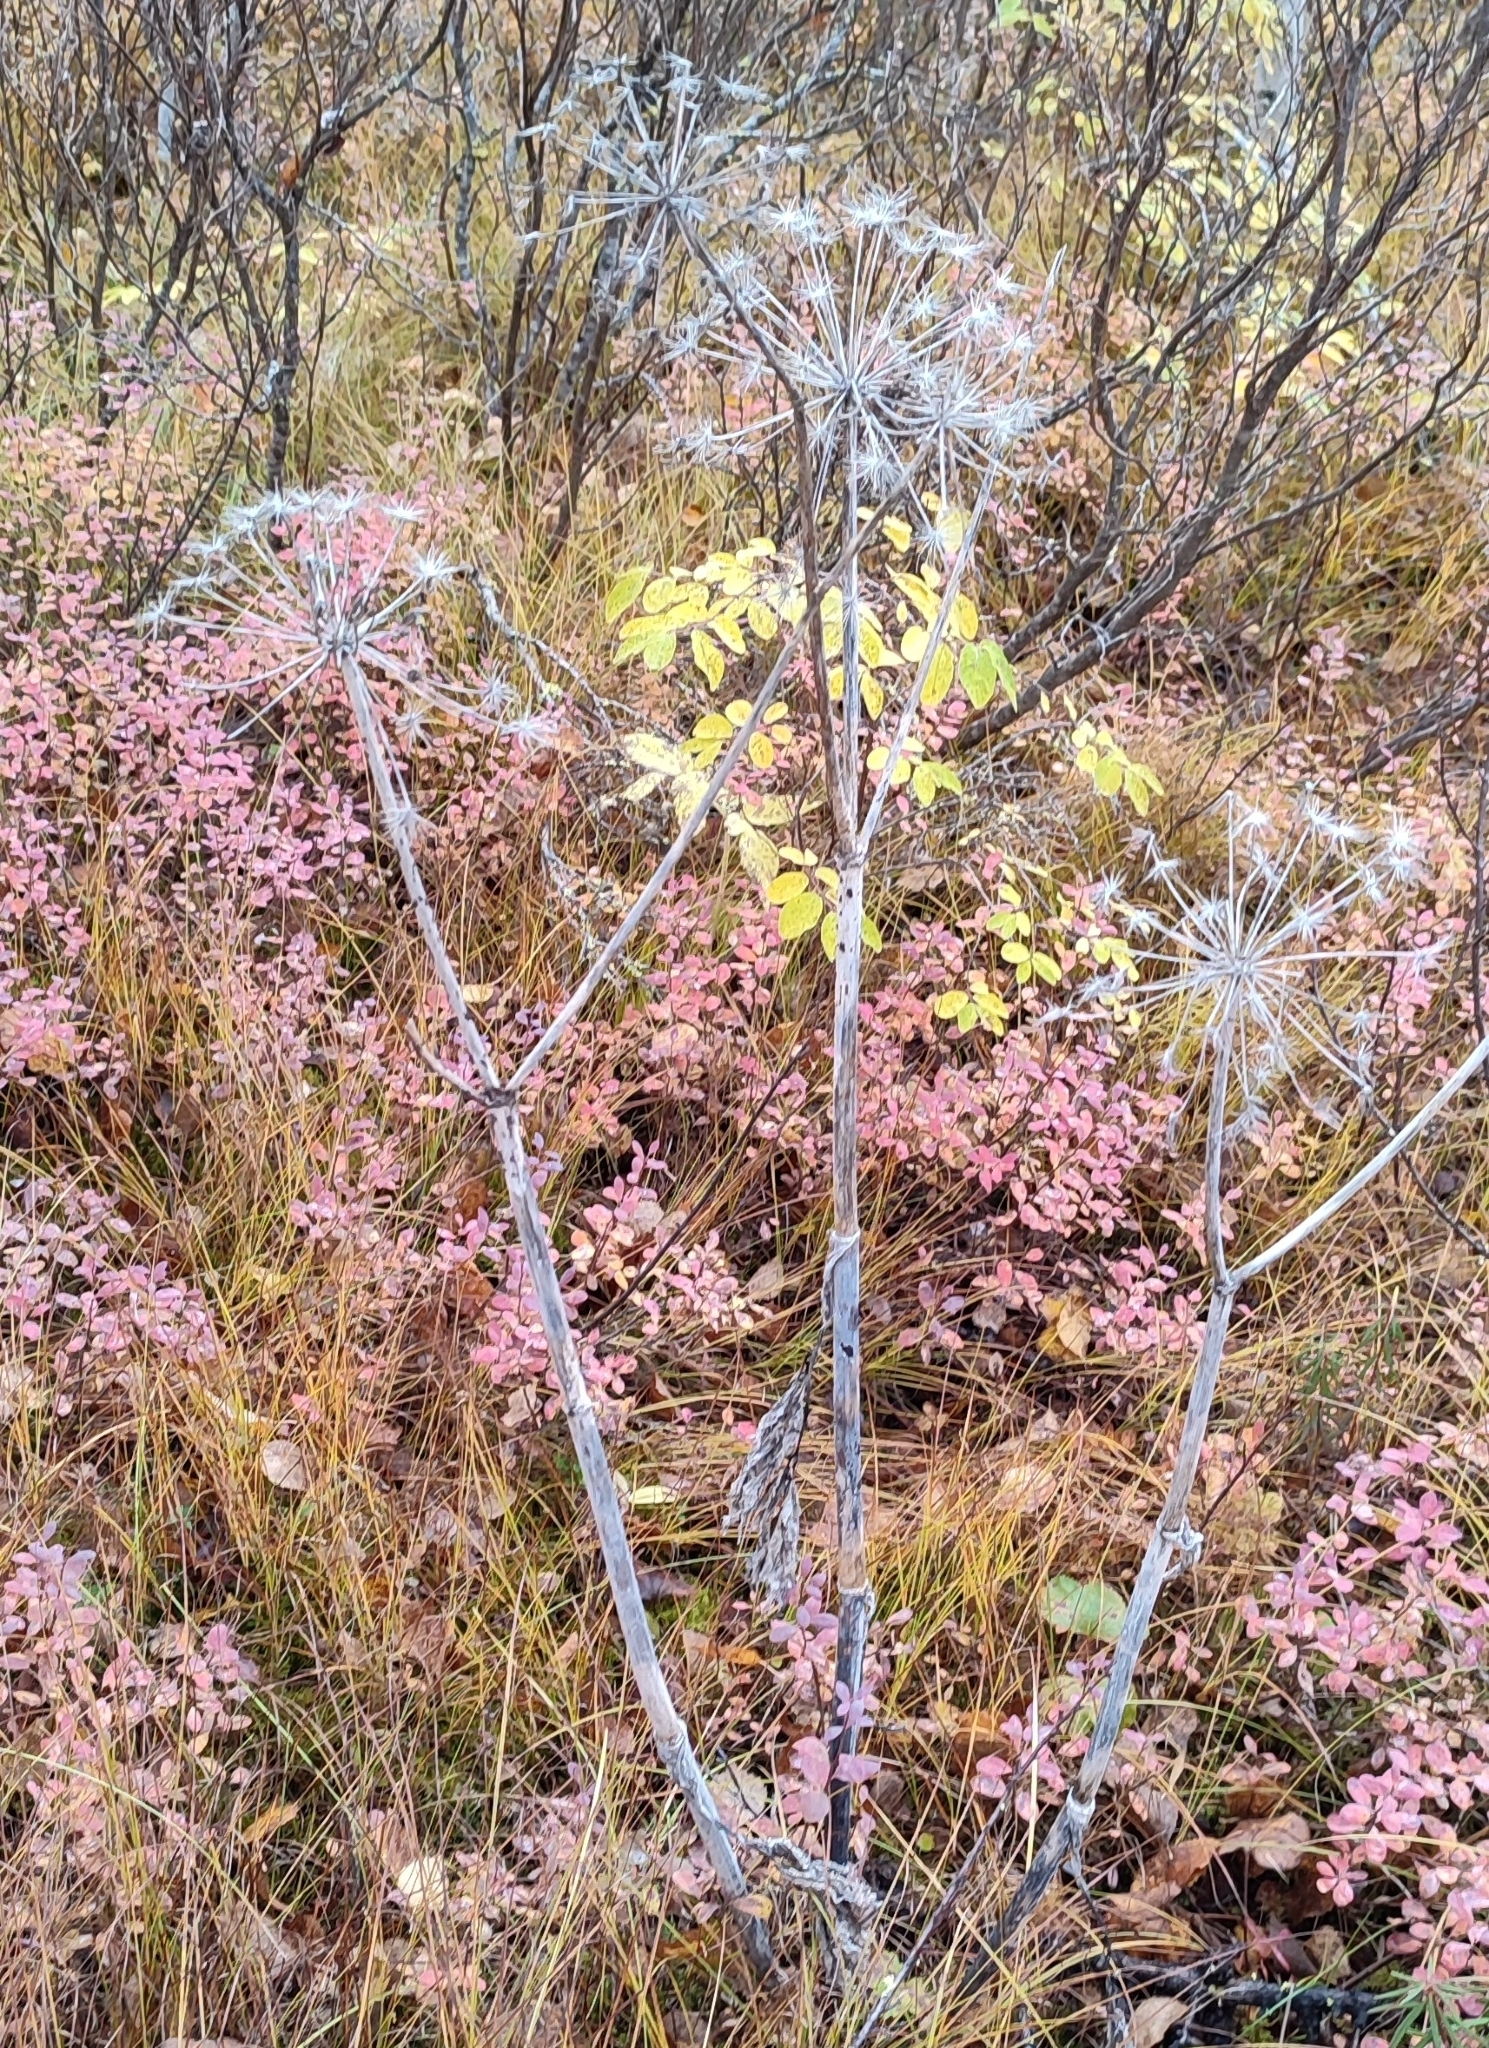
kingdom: Plantae
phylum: Tracheophyta
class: Magnoliopsida
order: Apiales
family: Apiaceae
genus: Angelica
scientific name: Angelica decurrens
